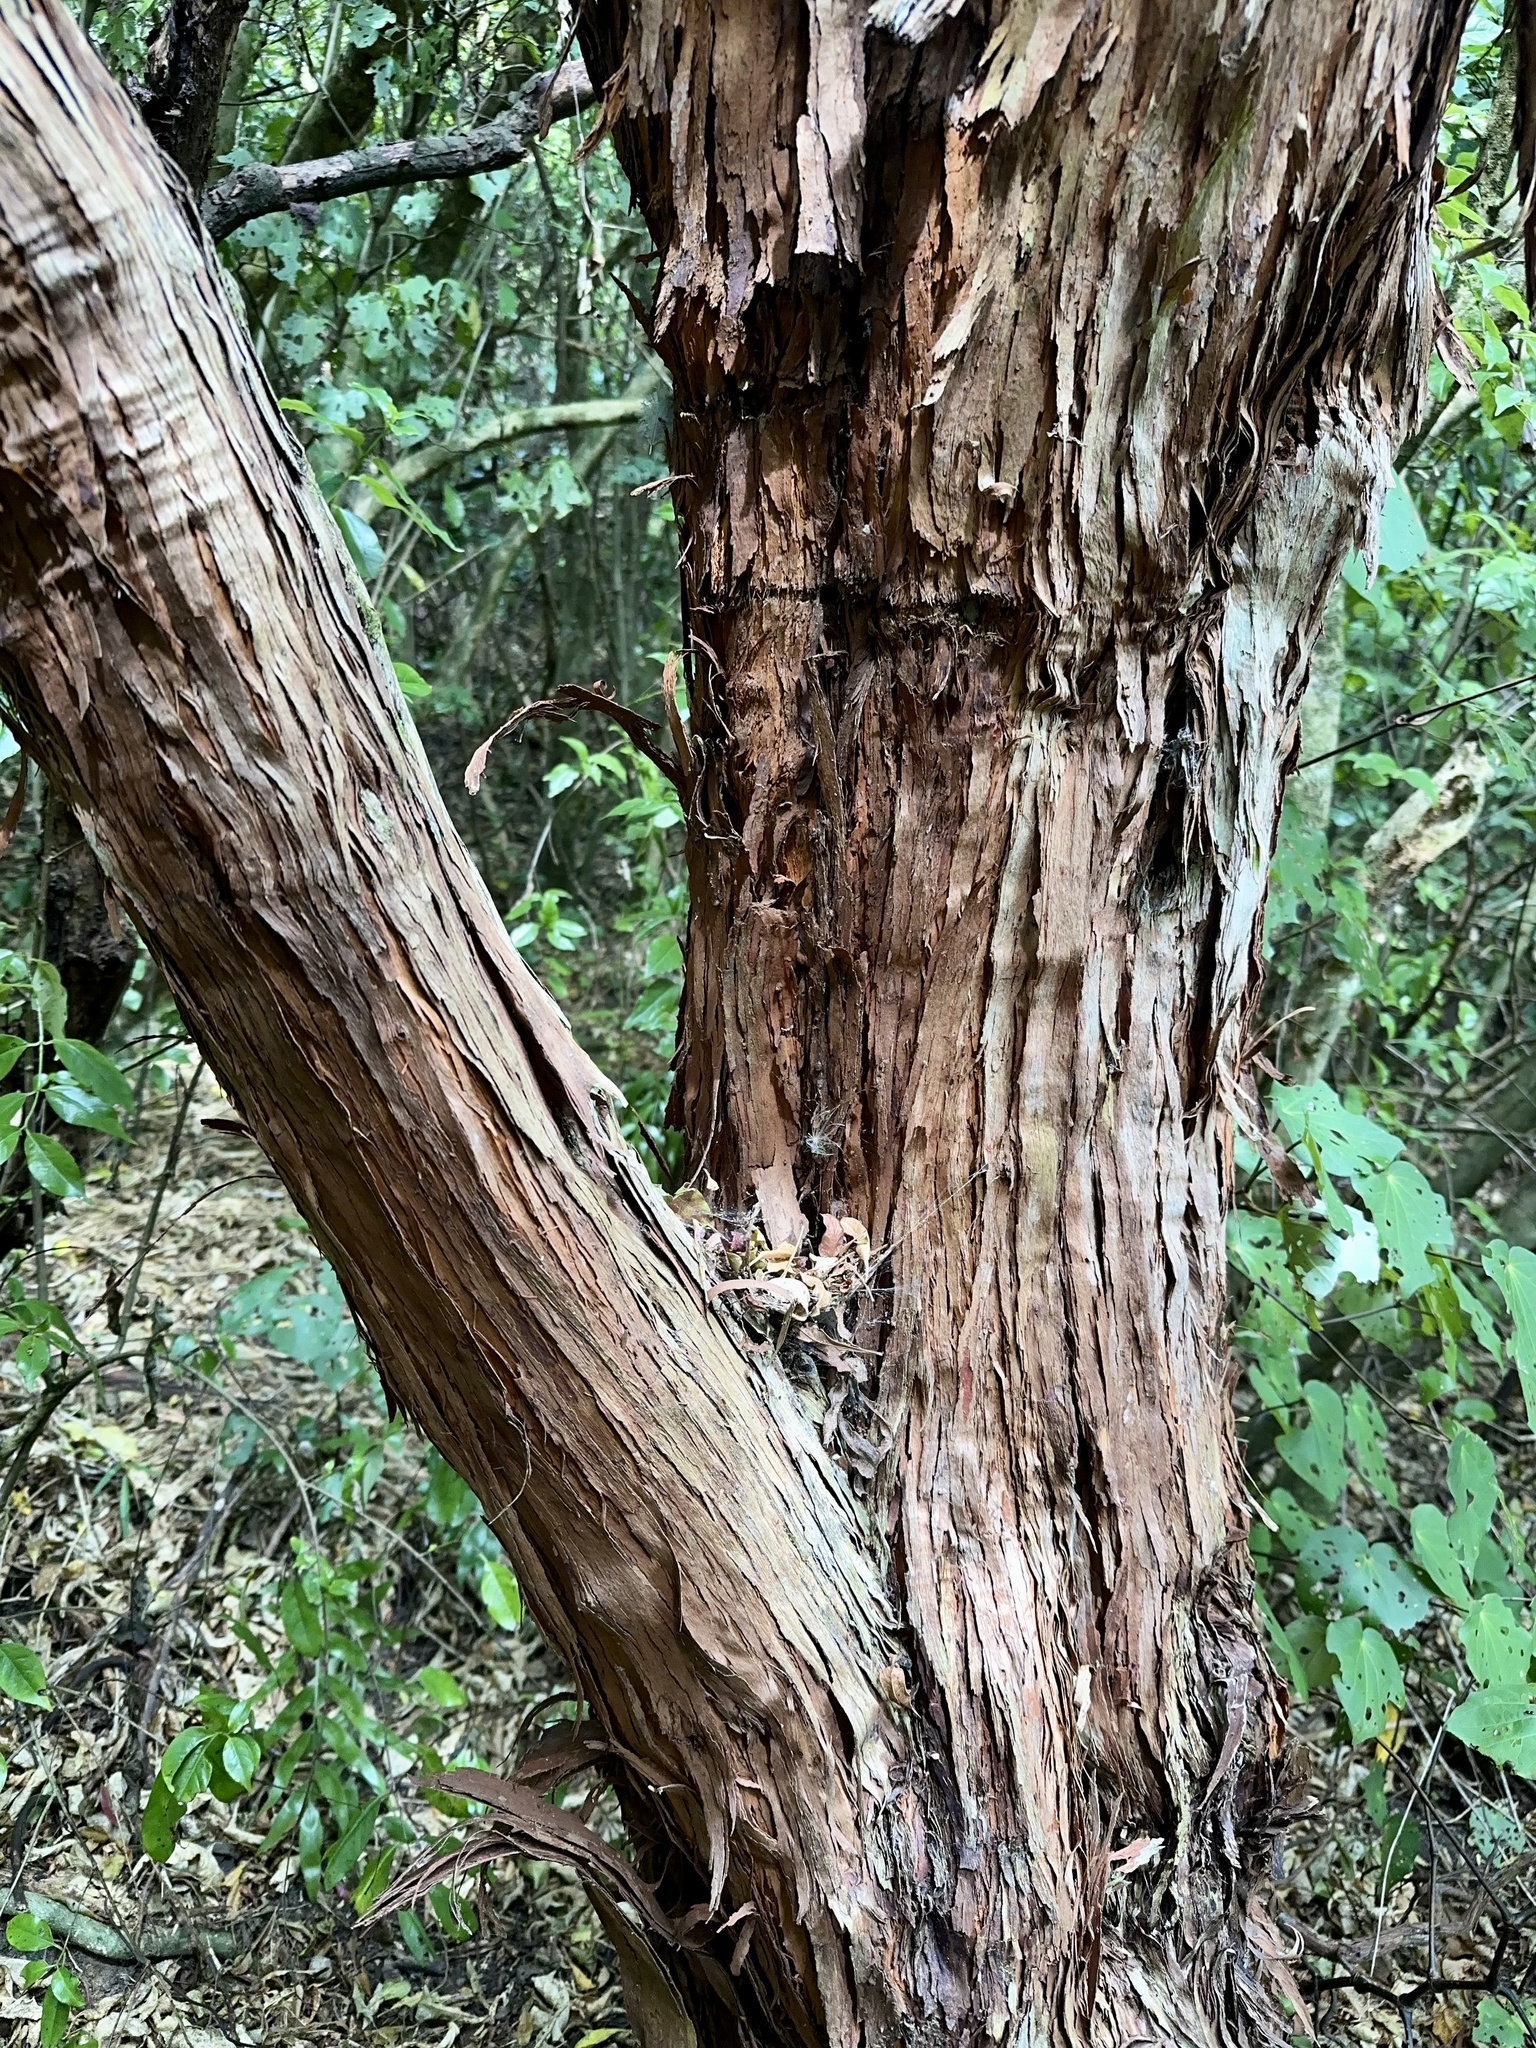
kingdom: Plantae
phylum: Tracheophyta
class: Magnoliopsida
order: Sapindales
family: Sapindaceae
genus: Dodonaea
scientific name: Dodonaea viscosa
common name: Hopbush
